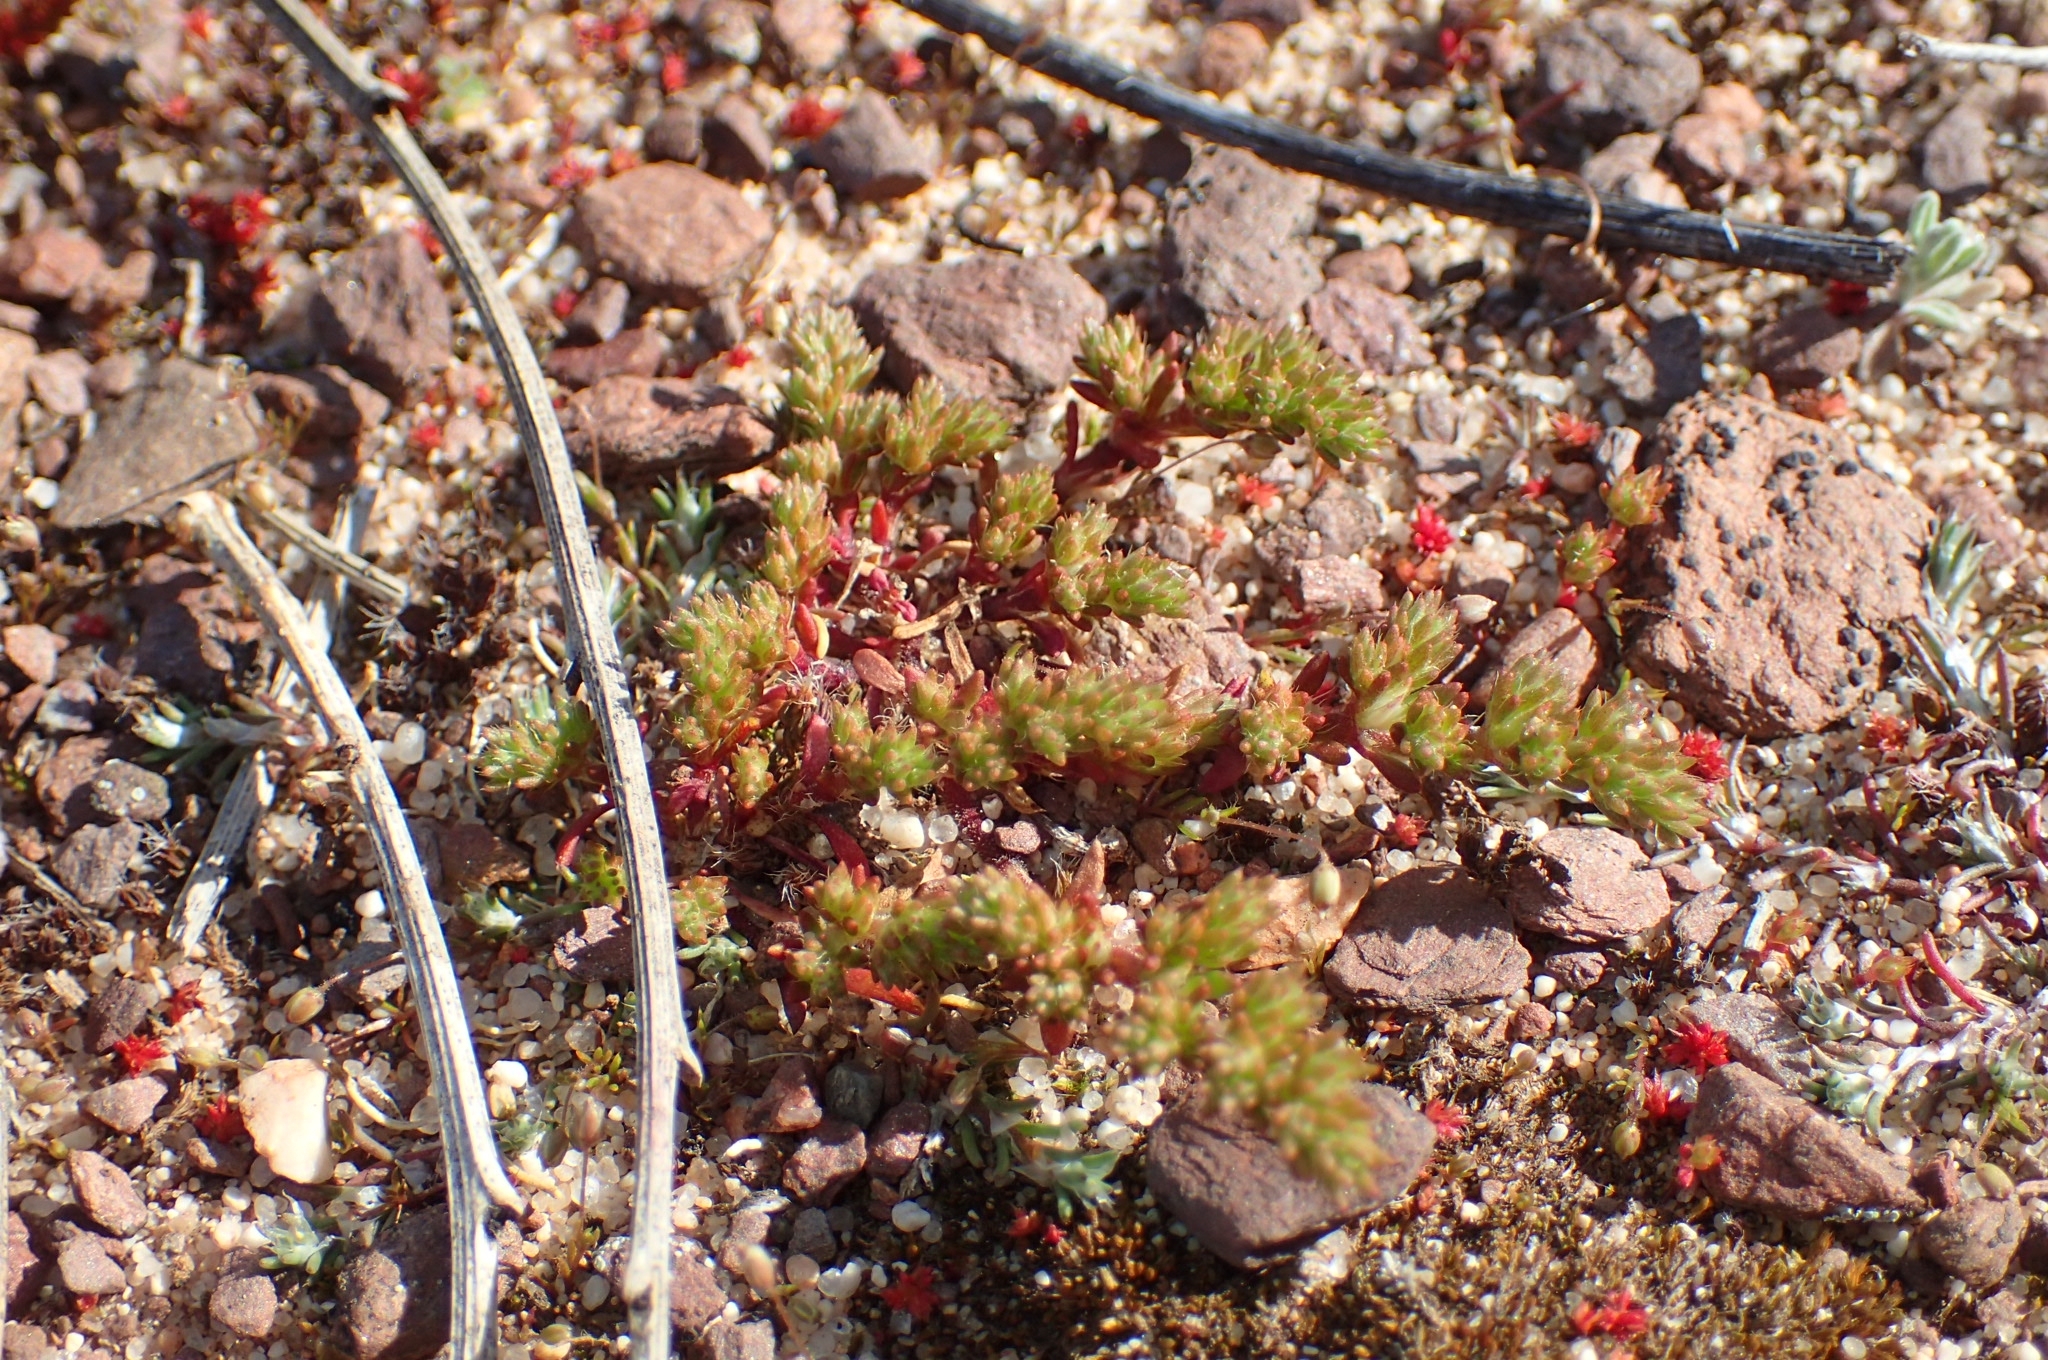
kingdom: Plantae
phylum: Tracheophyta
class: Magnoliopsida
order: Caryophyllales
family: Caryophyllaceae
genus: Loeflingia
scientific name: Loeflingia hispanica
